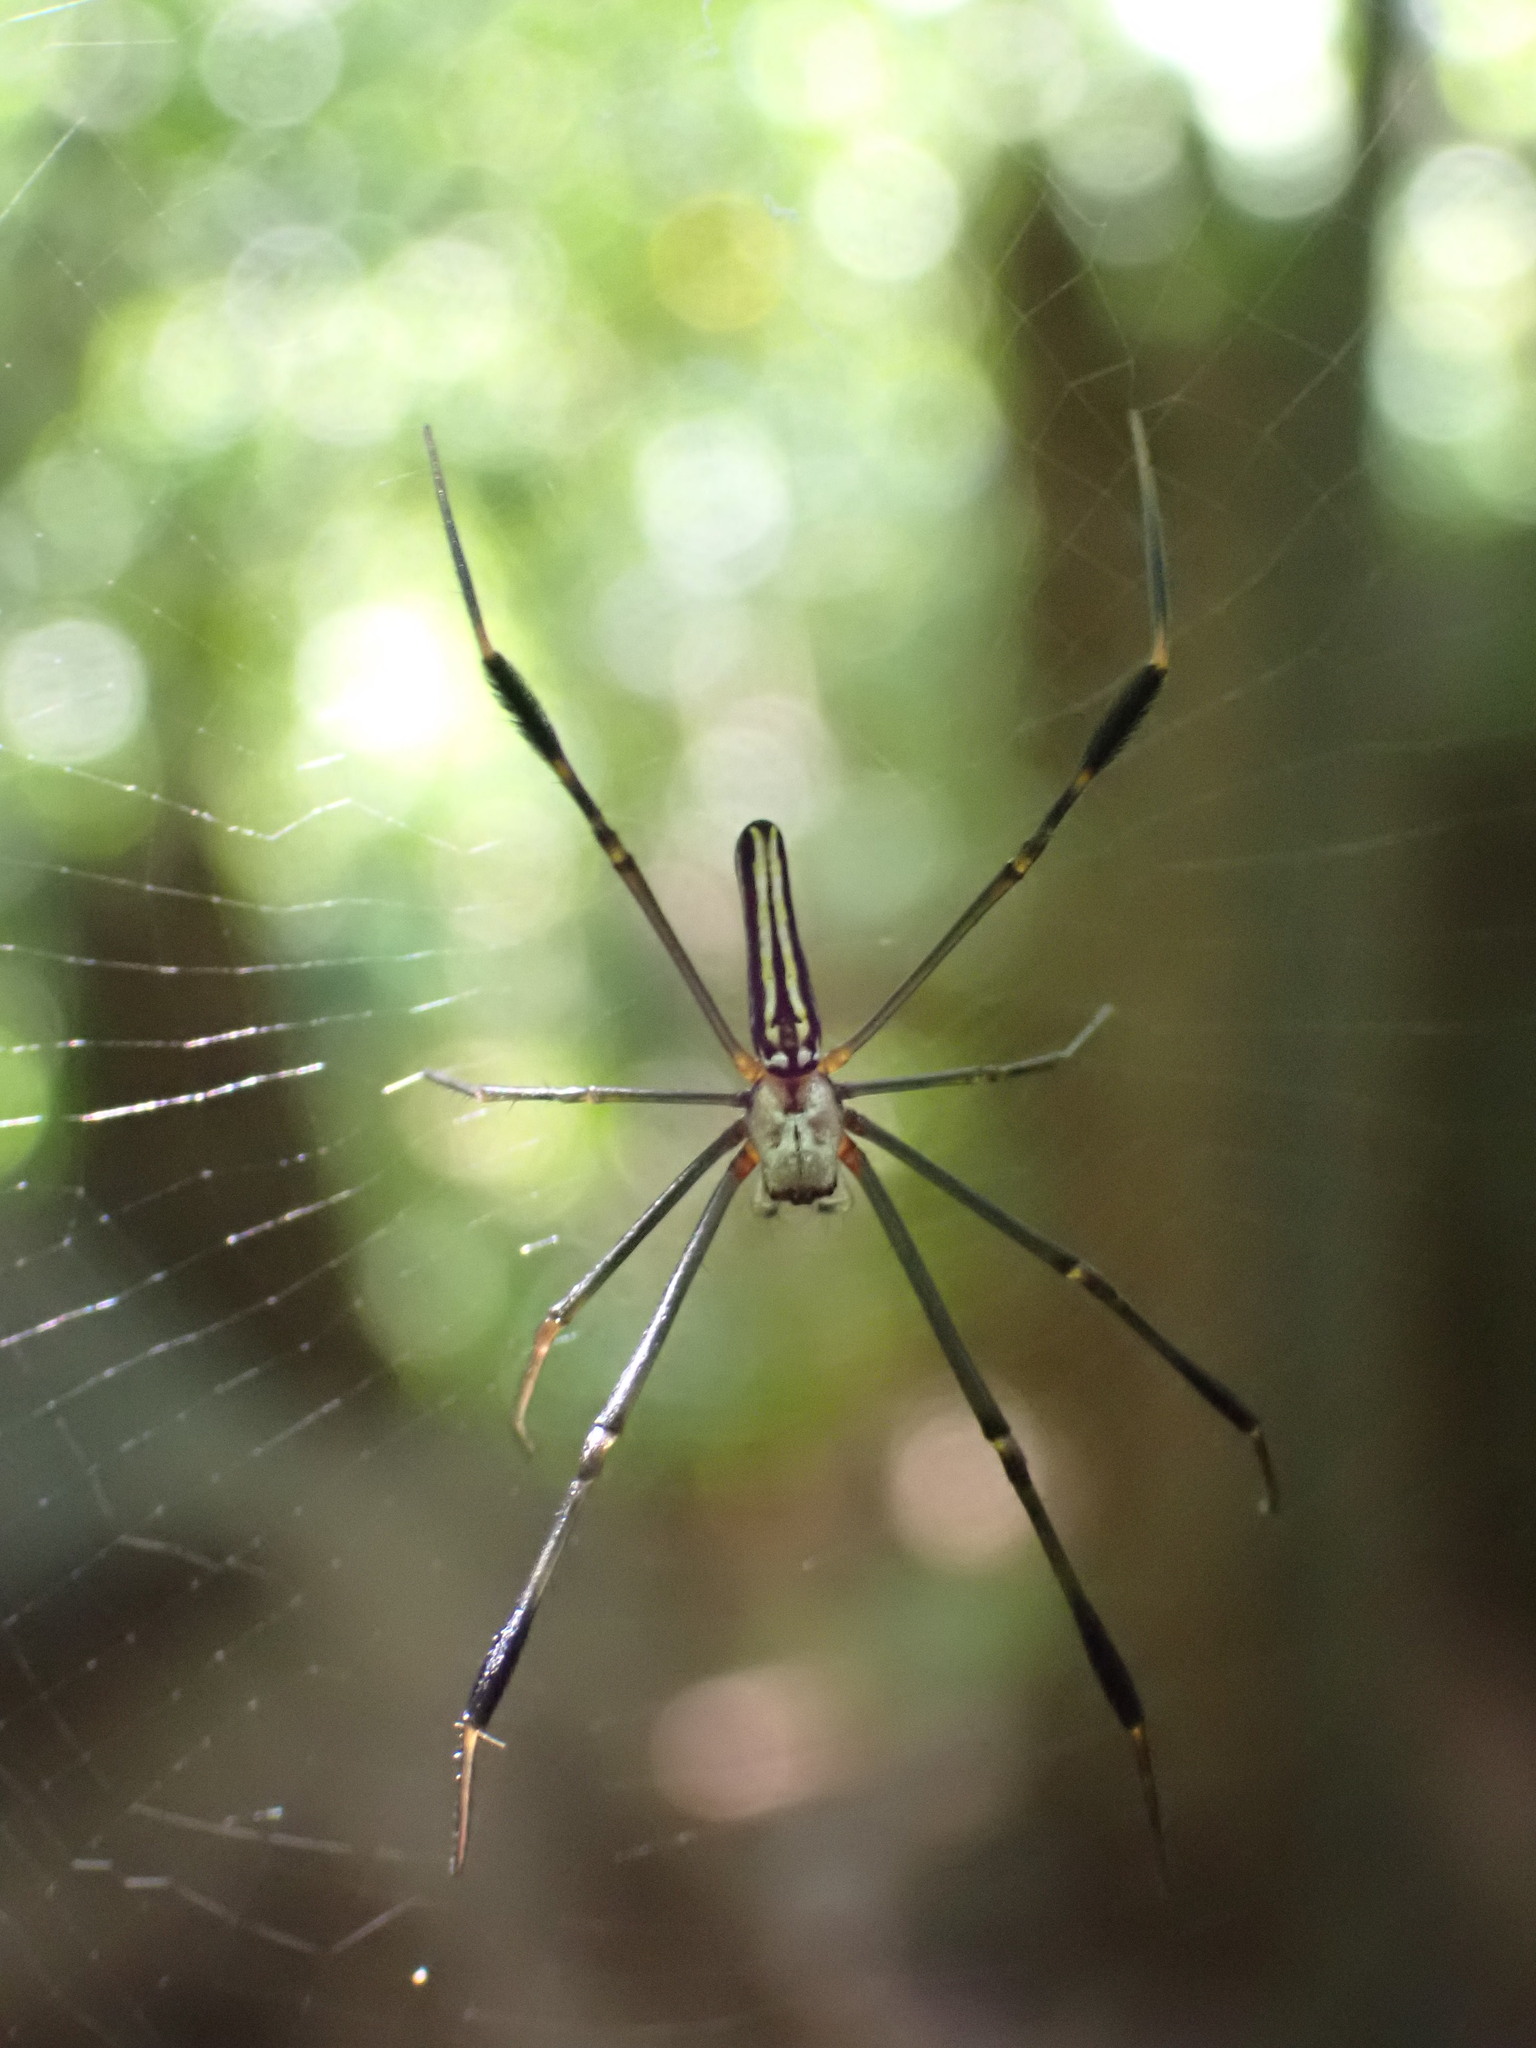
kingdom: Animalia
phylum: Arthropoda
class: Arachnida
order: Araneae
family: Araneidae
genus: Nephila
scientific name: Nephila pilipes
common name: Giant golden orb weaver
